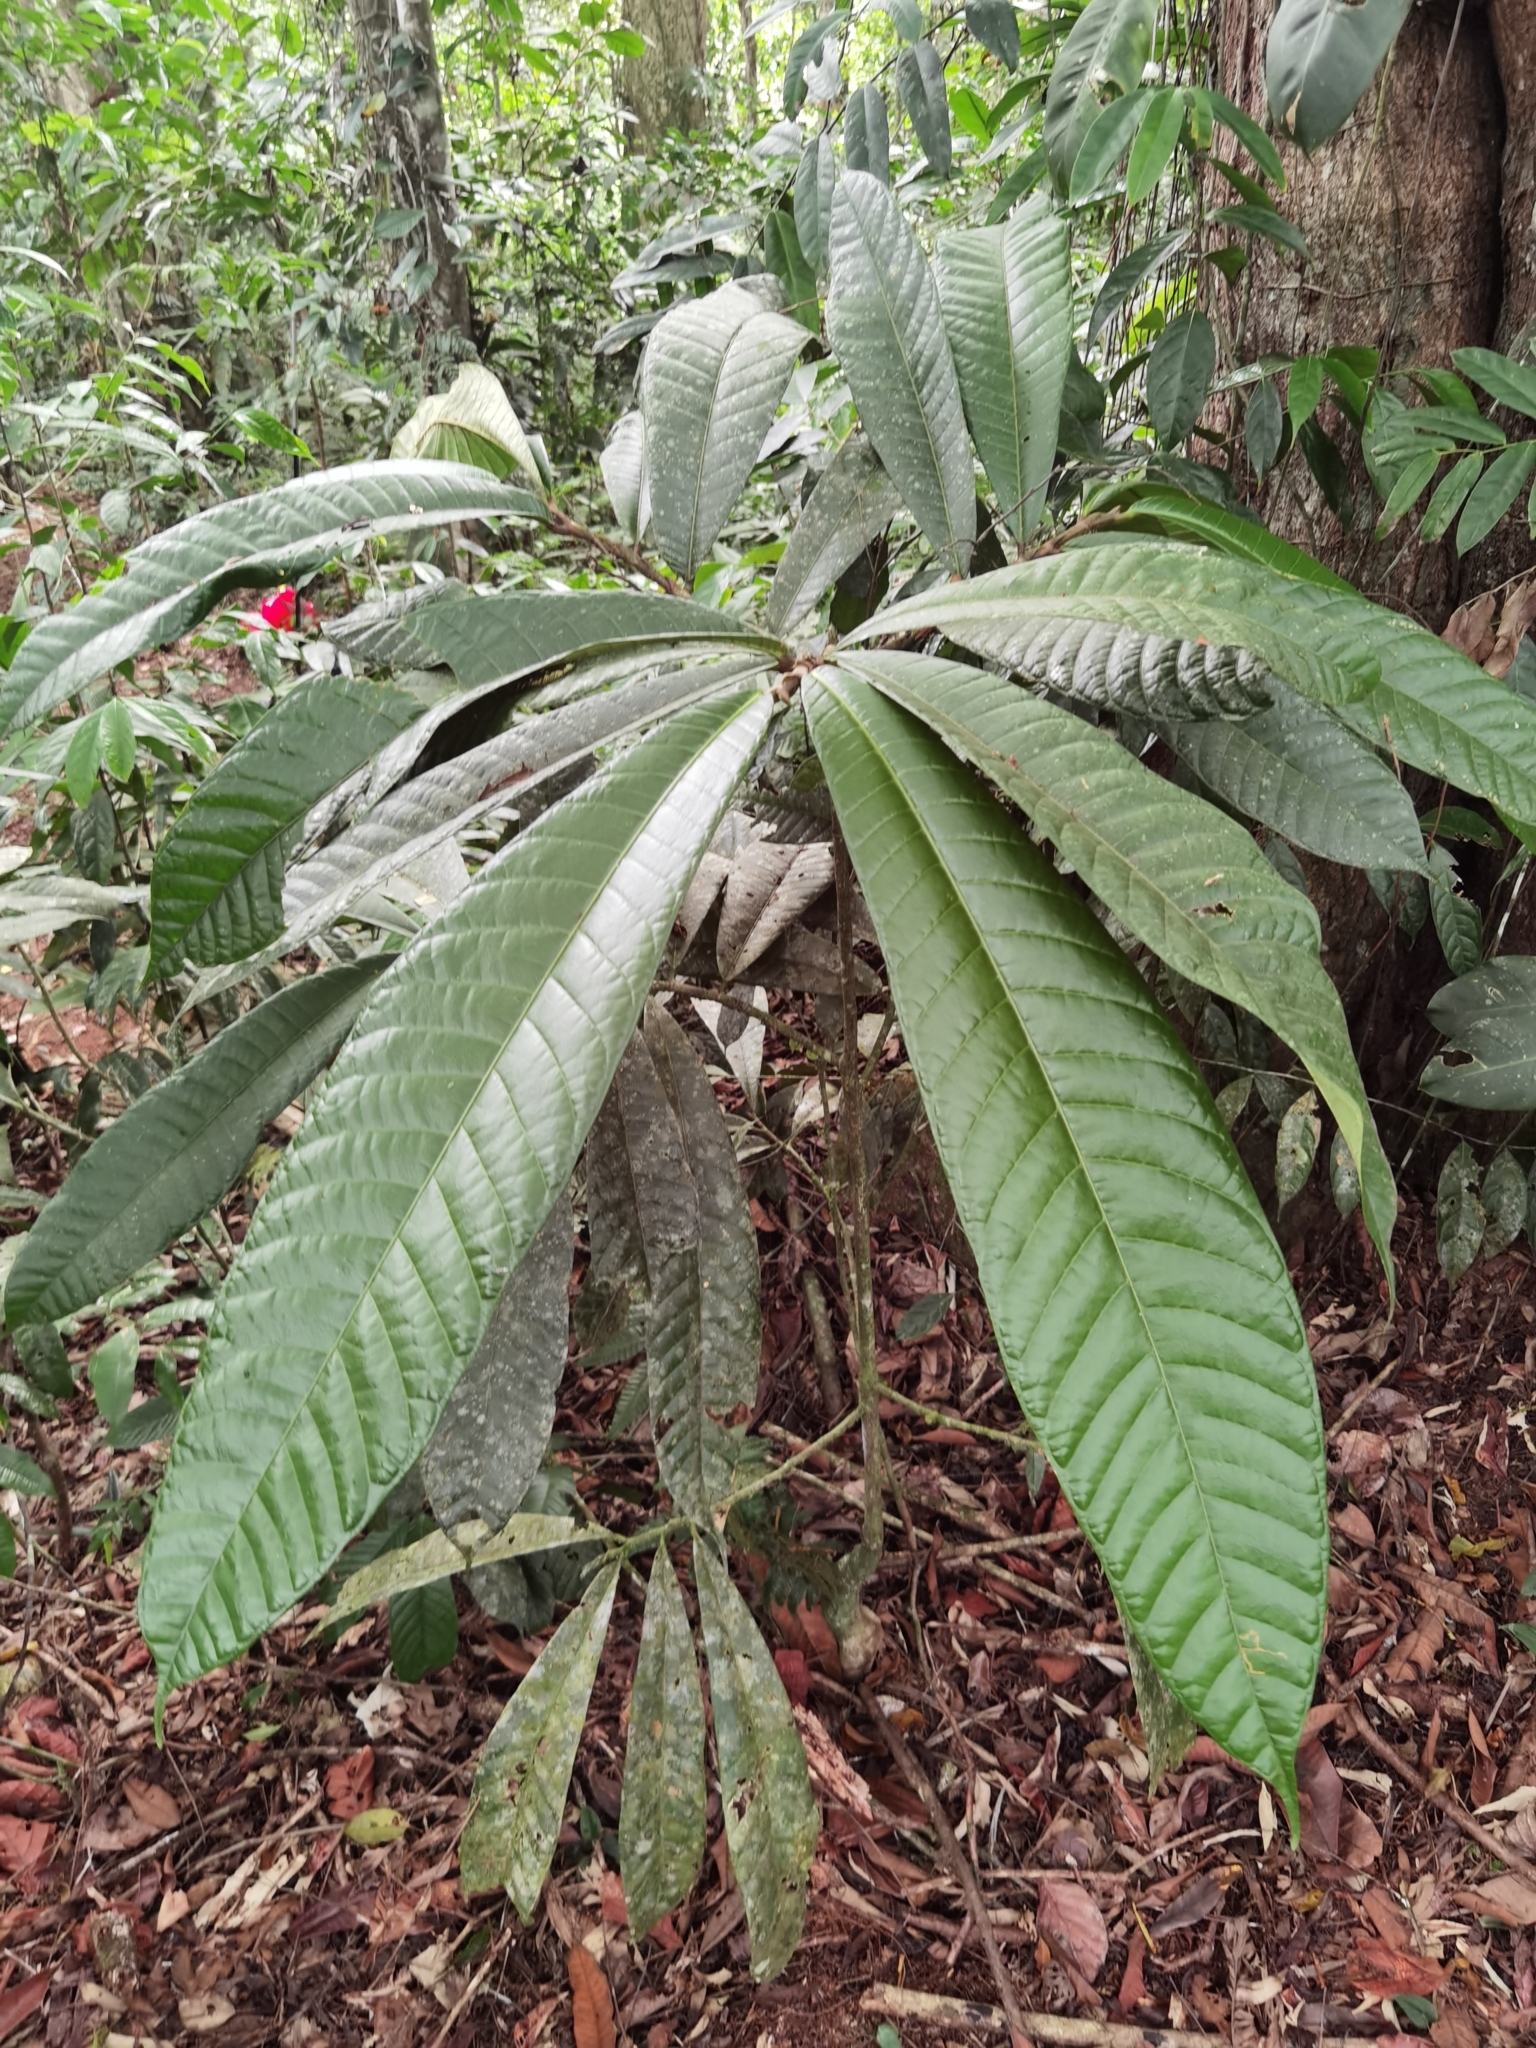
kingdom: Plantae
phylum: Tracheophyta
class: Magnoliopsida
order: Rosales
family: Moraceae
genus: Naucleopsis
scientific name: Naucleopsis naga
